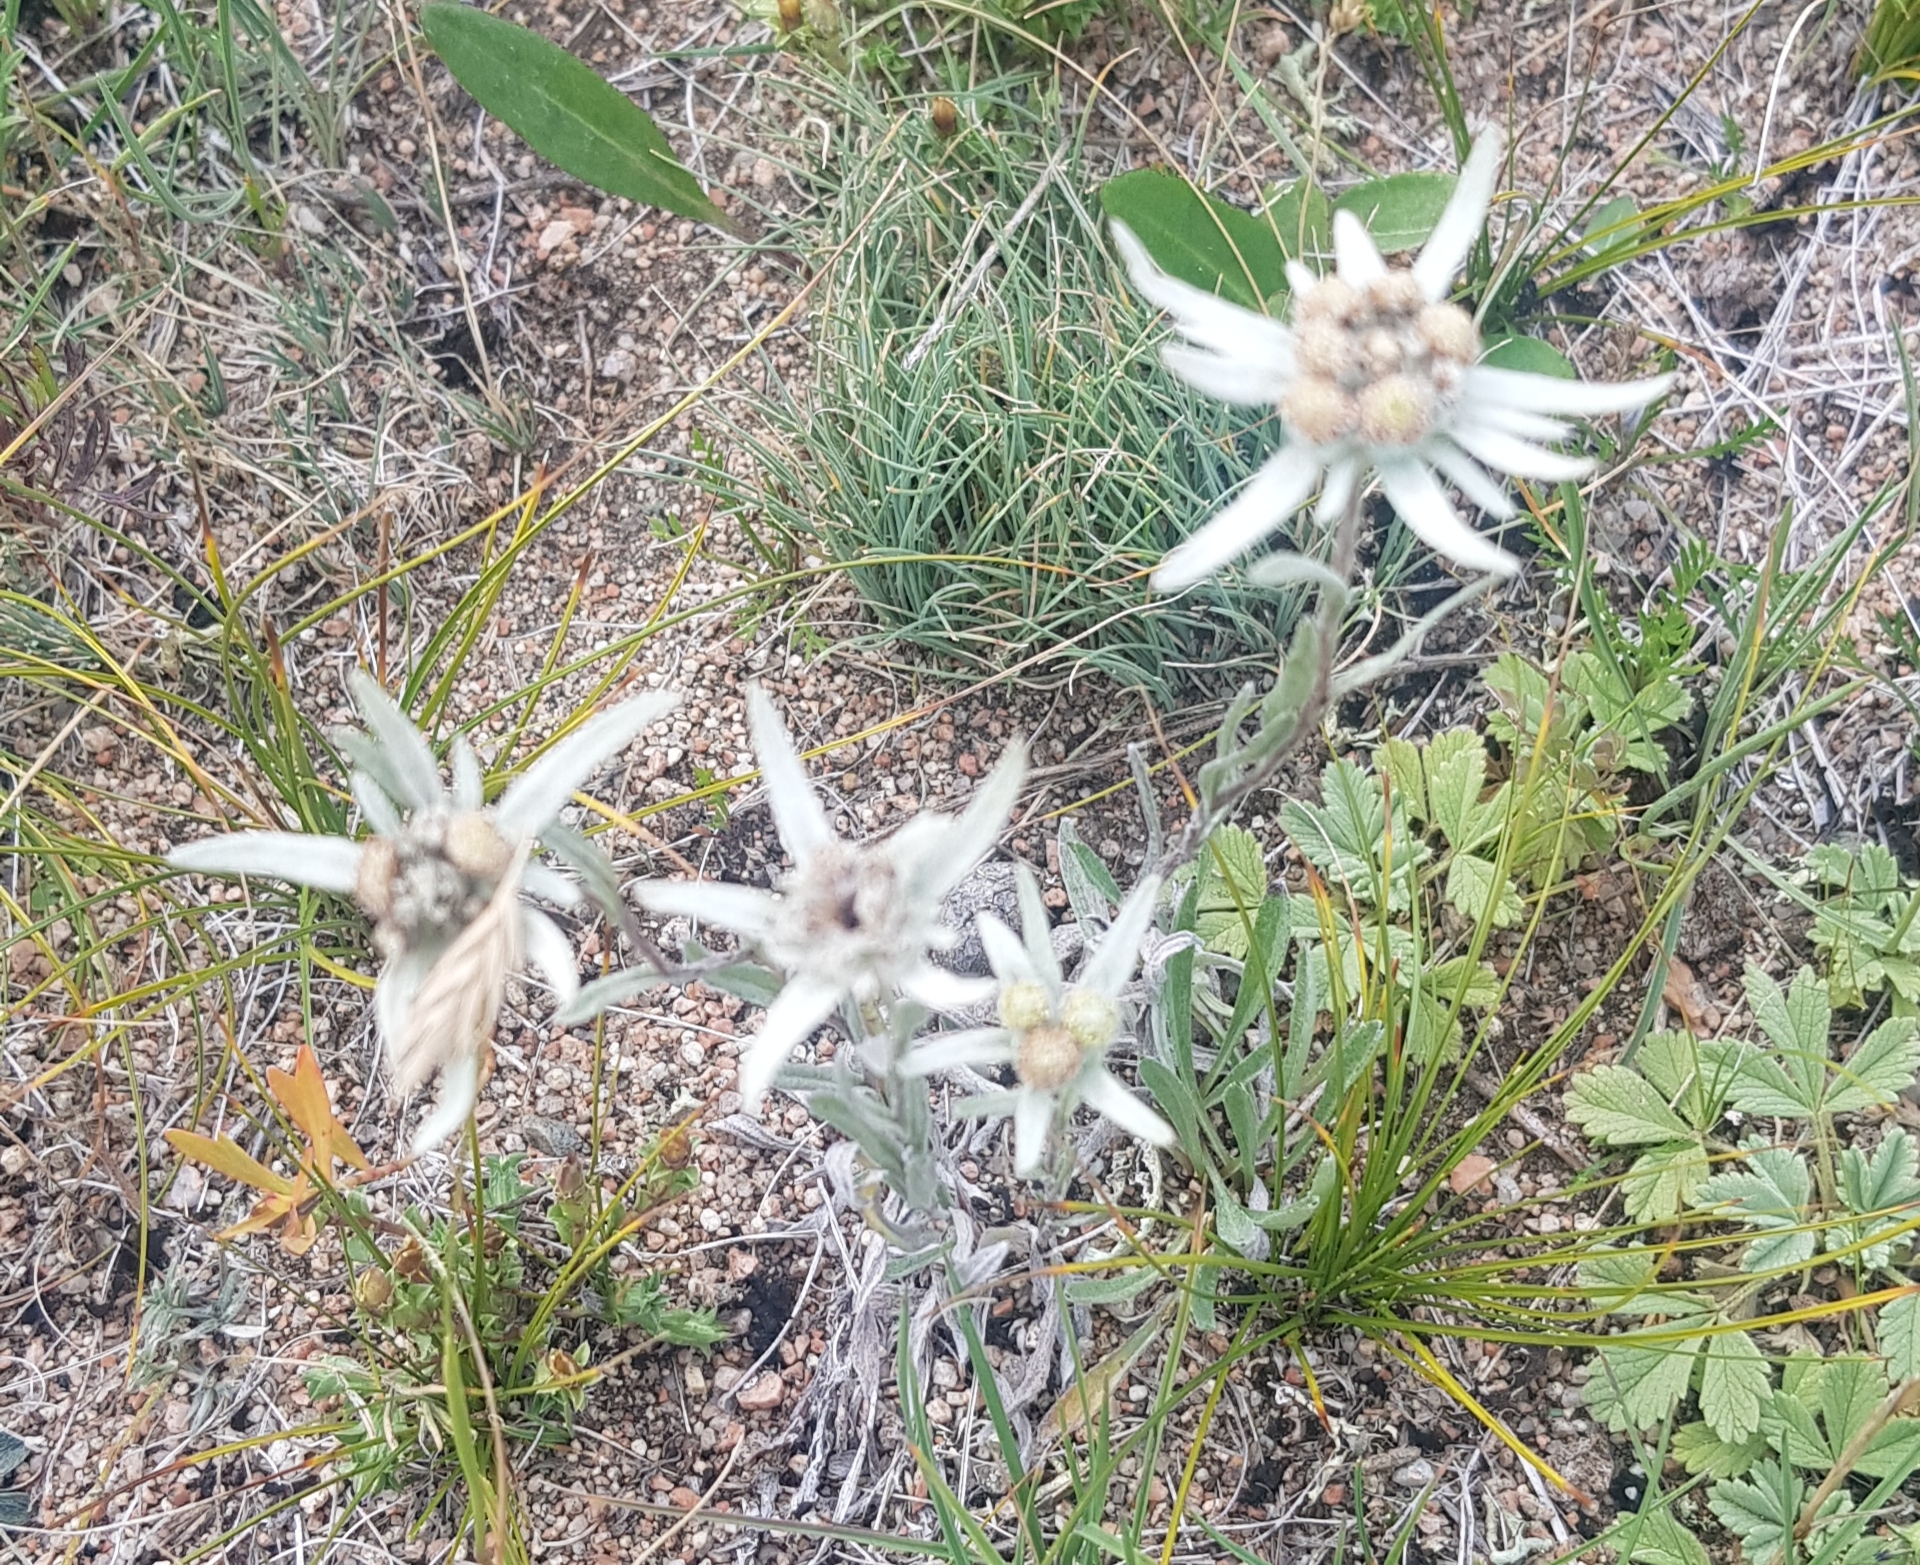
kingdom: Plantae
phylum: Tracheophyta
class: Magnoliopsida
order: Asterales
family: Asteraceae
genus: Leontopodium
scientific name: Leontopodium leontopodioides
